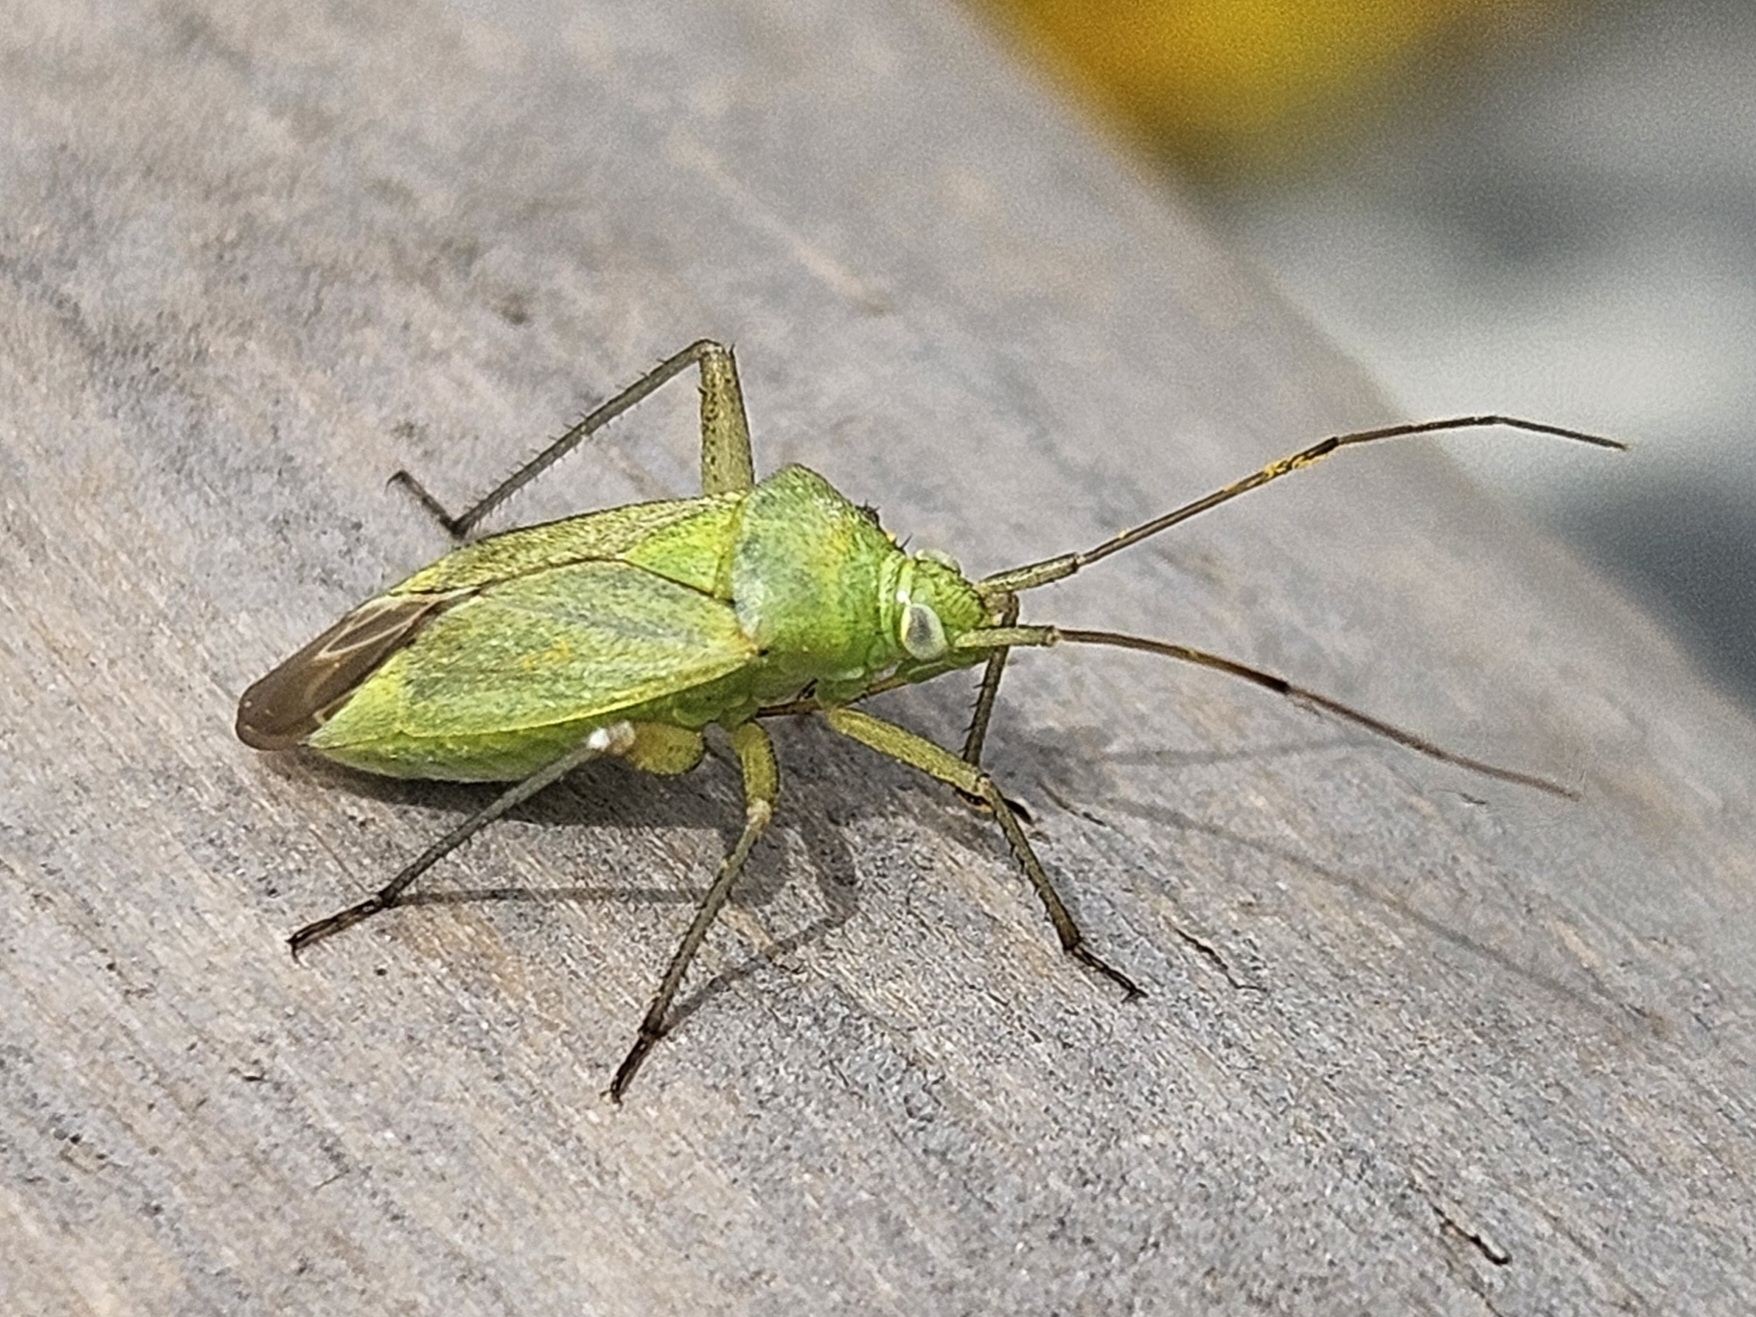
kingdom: Animalia
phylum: Arthropoda
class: Insecta
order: Hemiptera
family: Miridae
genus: Closterotomus
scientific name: Closterotomus norvegicus
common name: Plant bug
